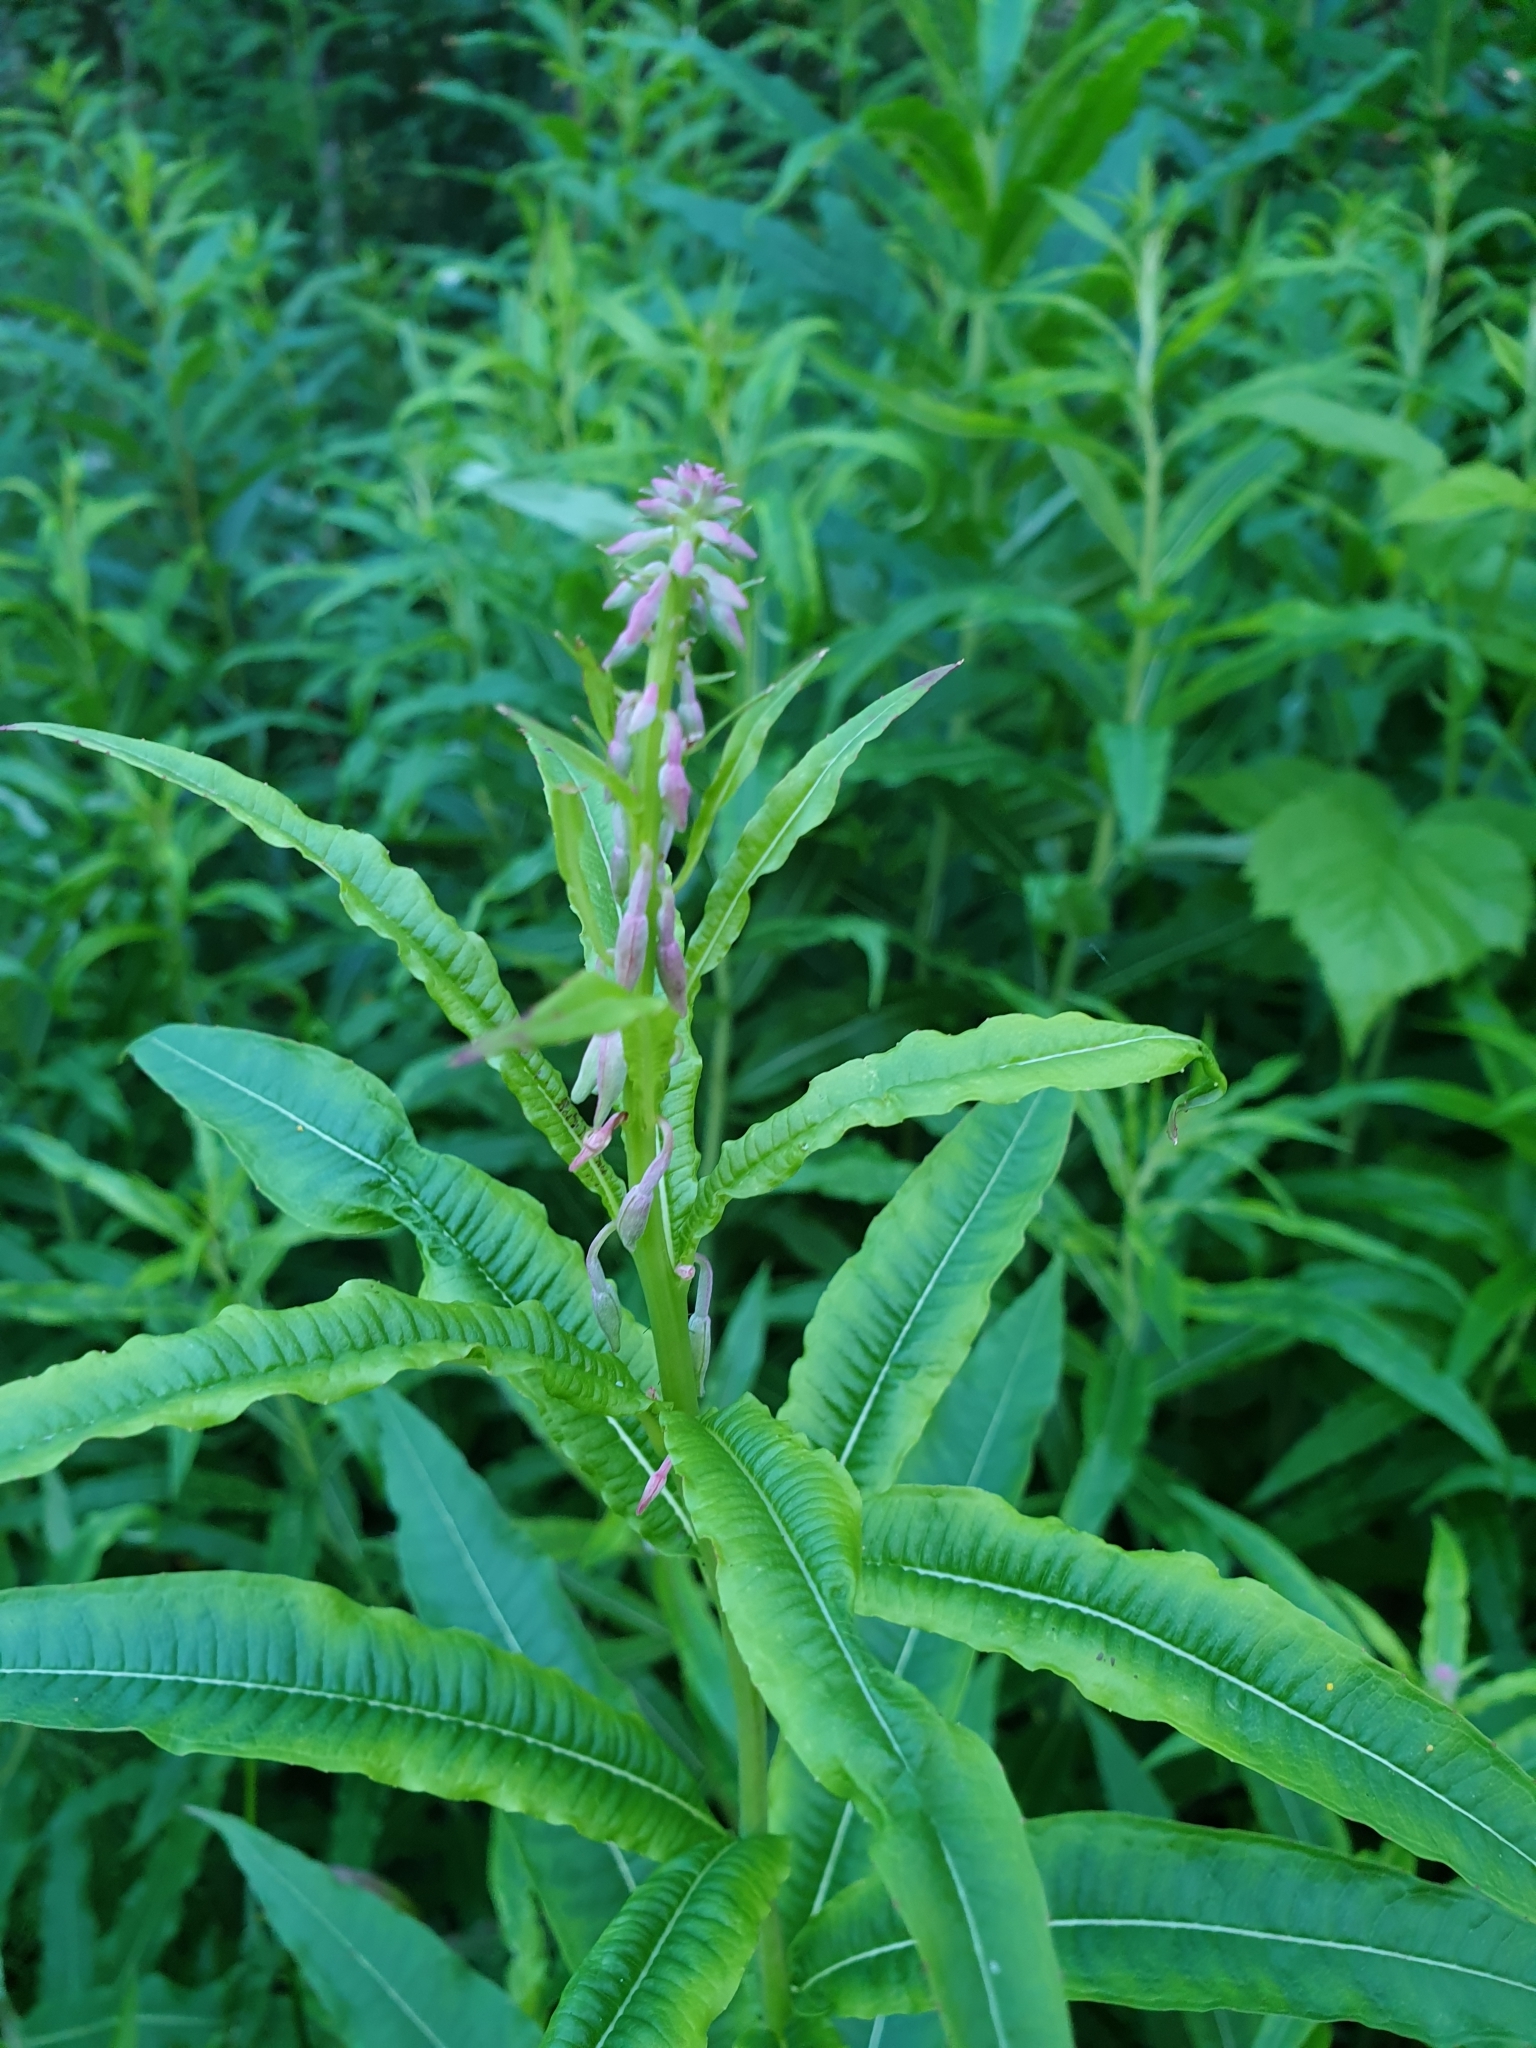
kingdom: Plantae
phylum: Tracheophyta
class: Magnoliopsida
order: Myrtales
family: Onagraceae
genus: Chamaenerion
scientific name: Chamaenerion angustifolium
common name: Fireweed
